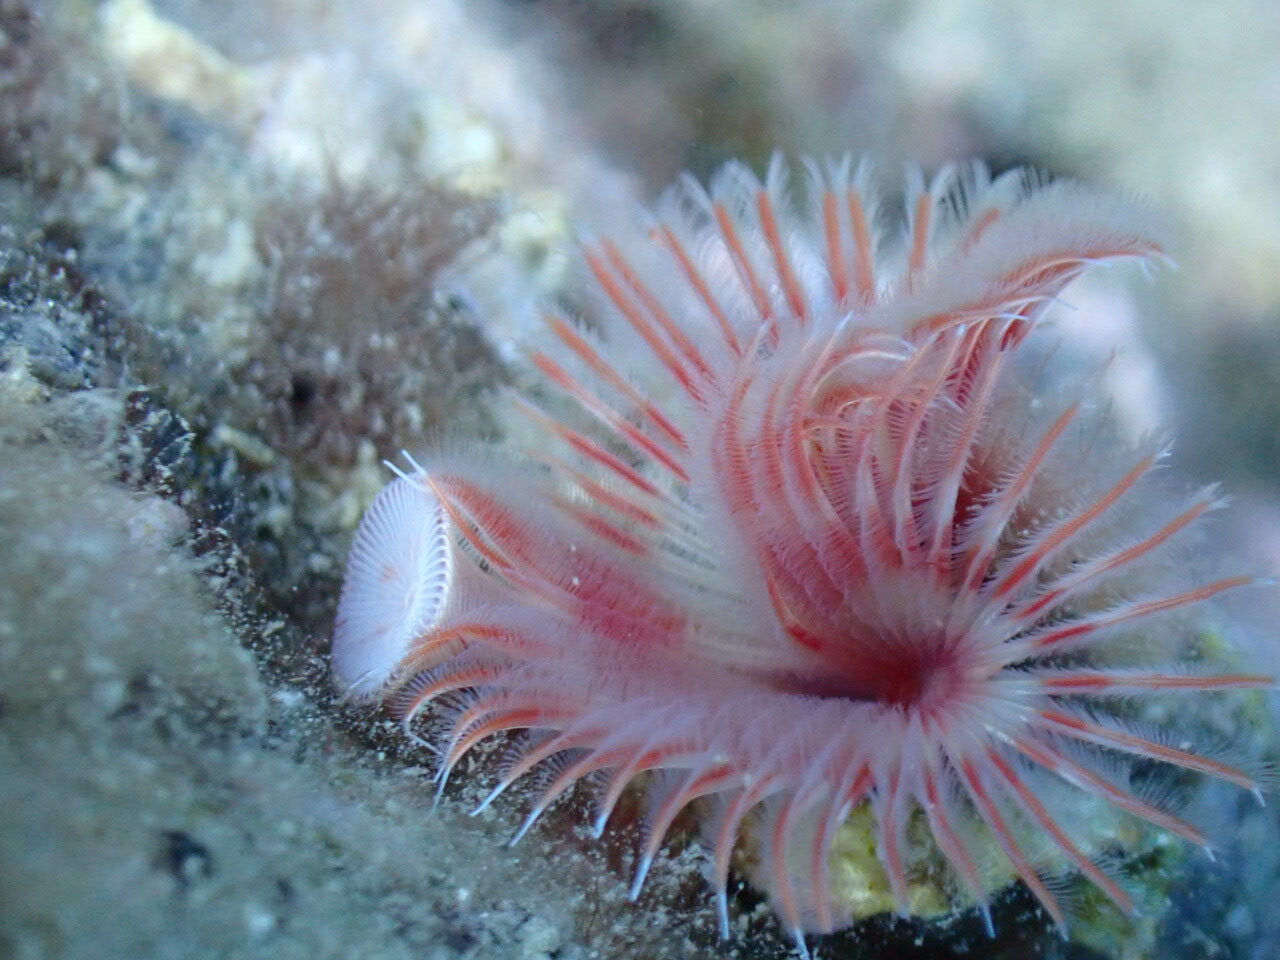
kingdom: Animalia
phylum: Annelida
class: Polychaeta
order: Sabellida
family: Serpulidae
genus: Serpula
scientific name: Serpula vermicularis
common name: Calcareous tubeworm
